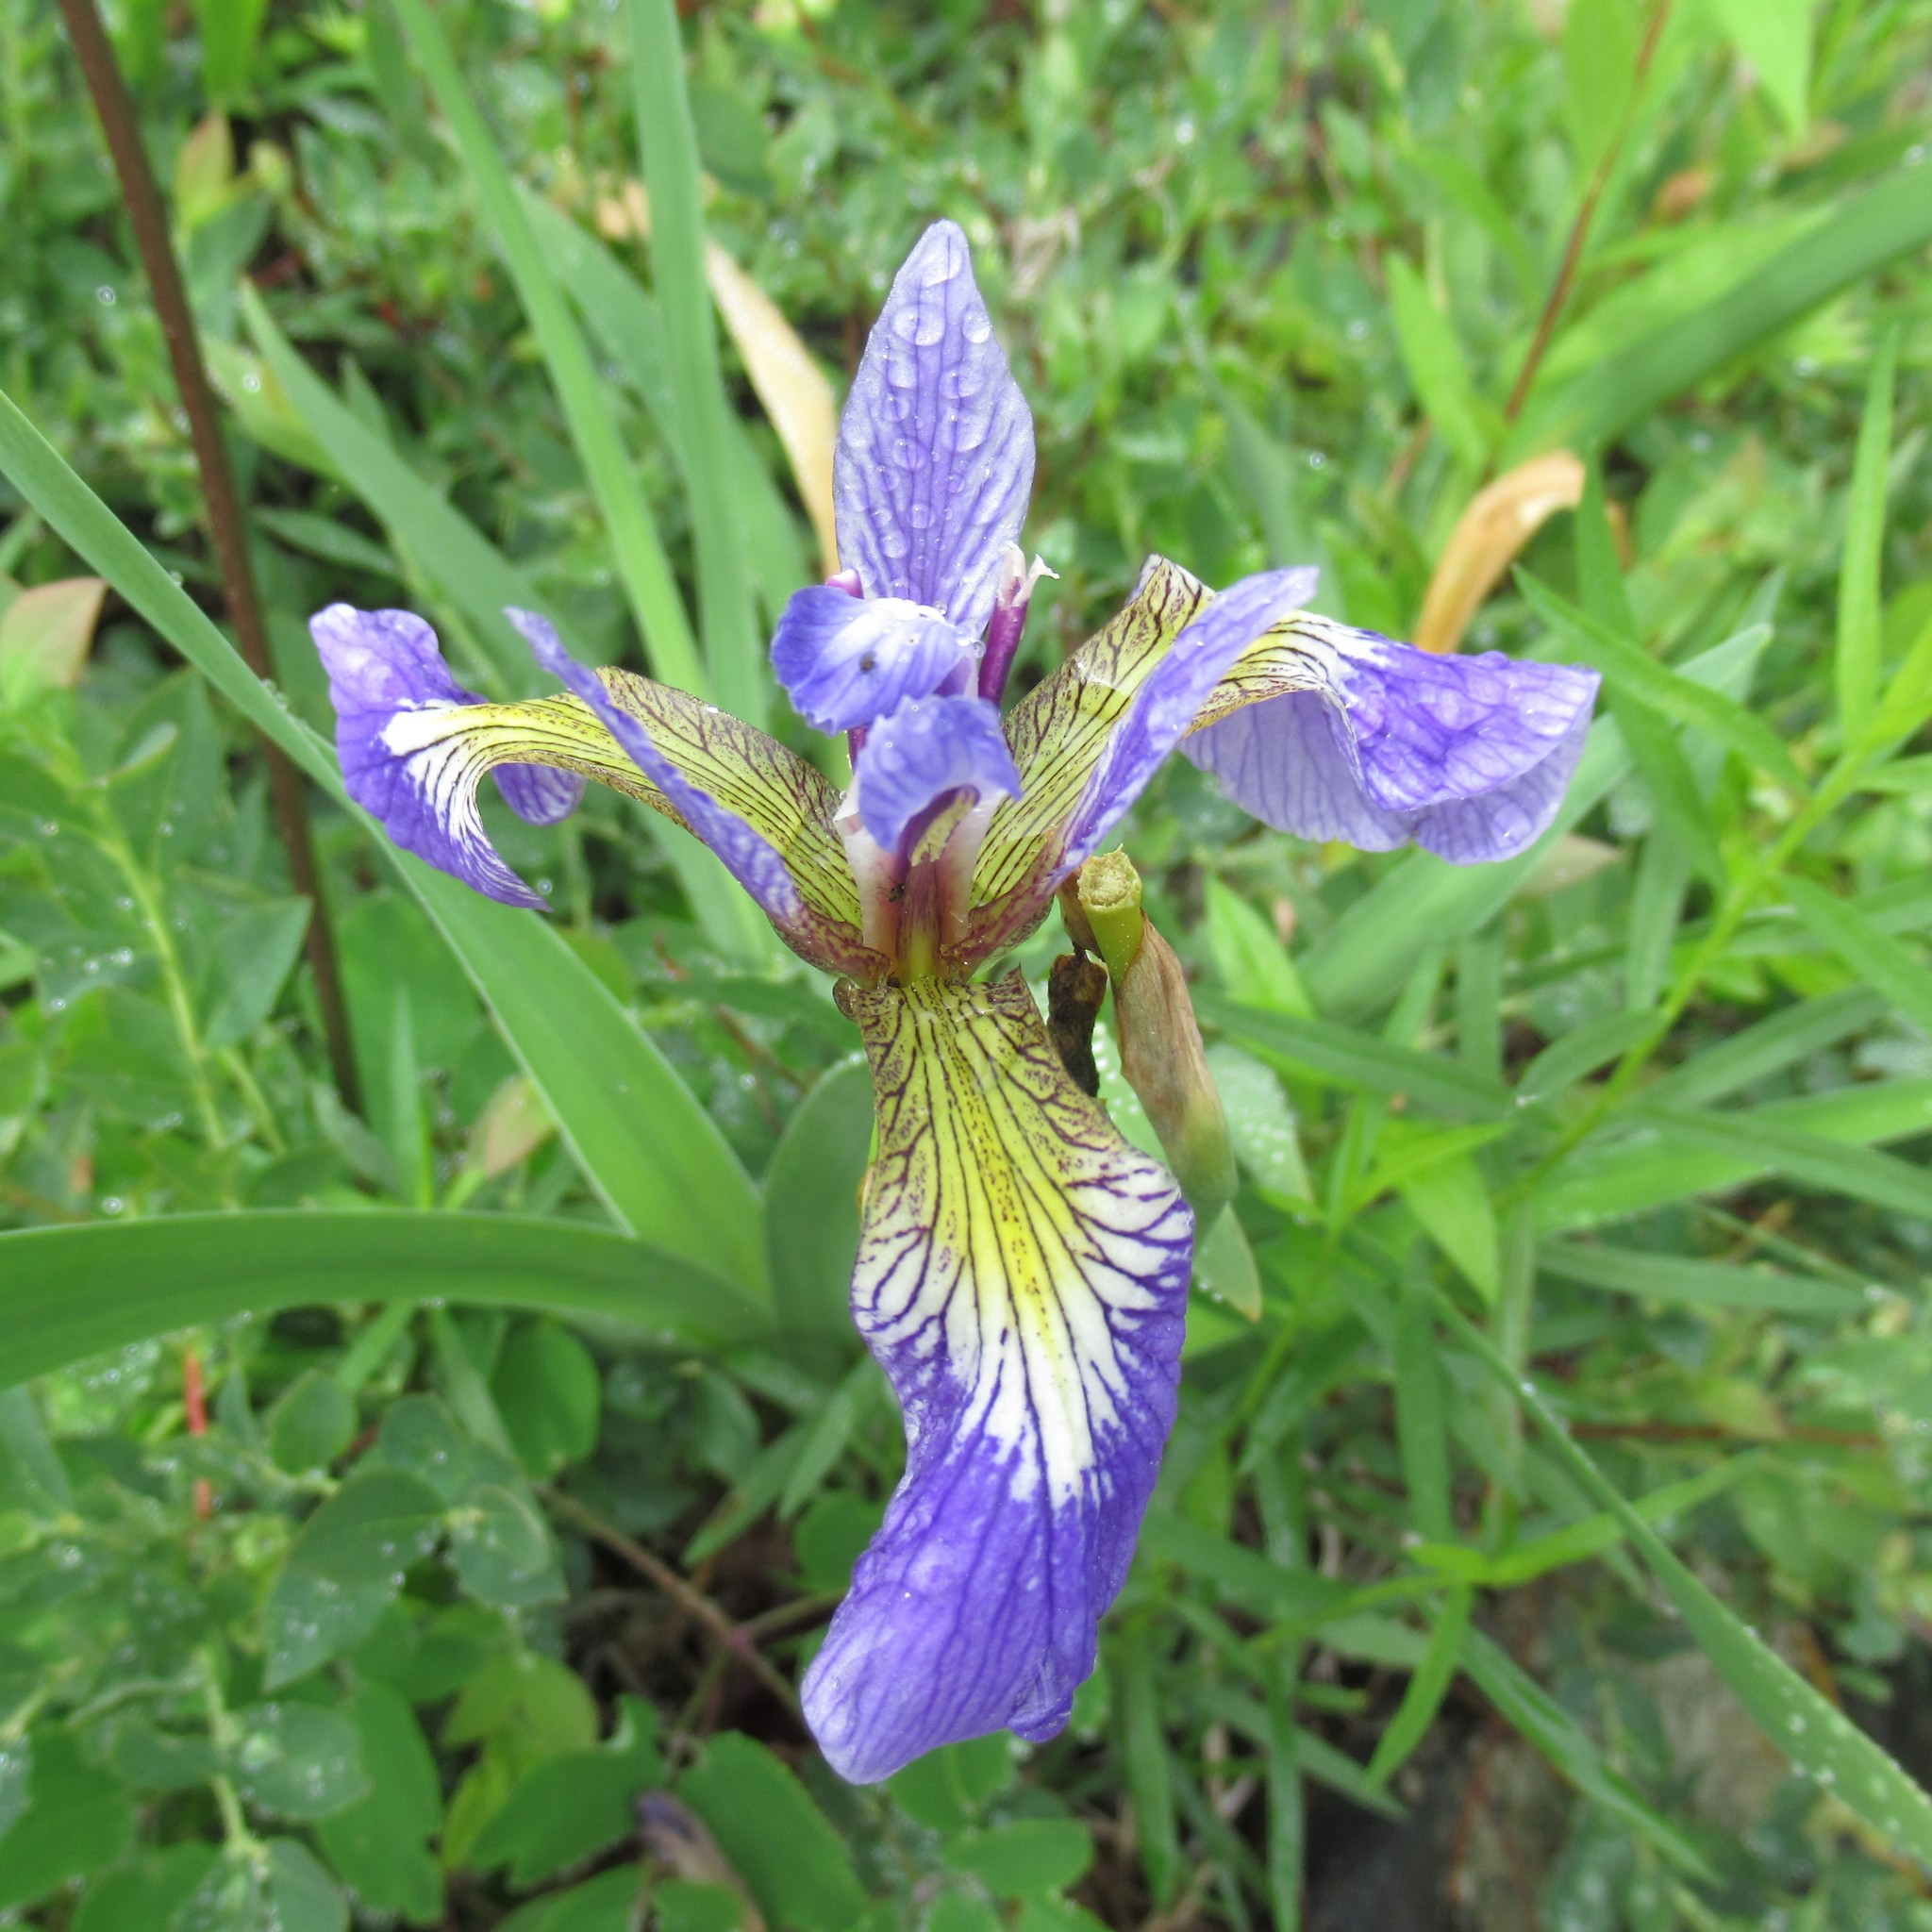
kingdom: Plantae
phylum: Tracheophyta
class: Liliopsida
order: Asparagales
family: Iridaceae
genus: Iris
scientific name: Iris versicolor
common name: Purple iris
